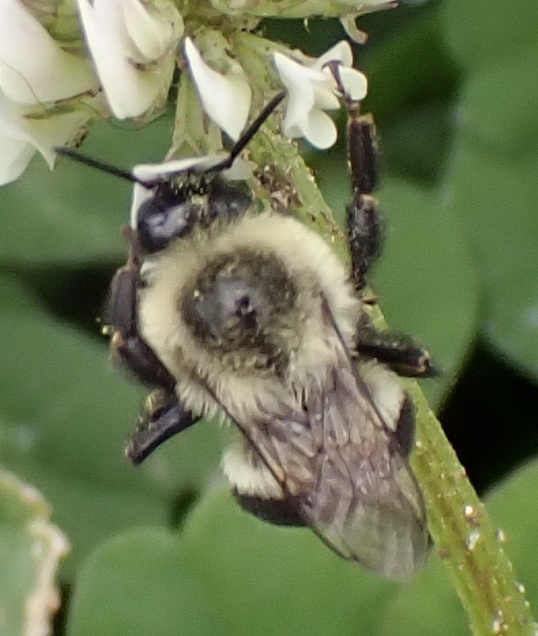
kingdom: Animalia
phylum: Arthropoda
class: Insecta
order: Hymenoptera
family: Apidae
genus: Bombus
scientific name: Bombus impatiens
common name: Common eastern bumble bee
